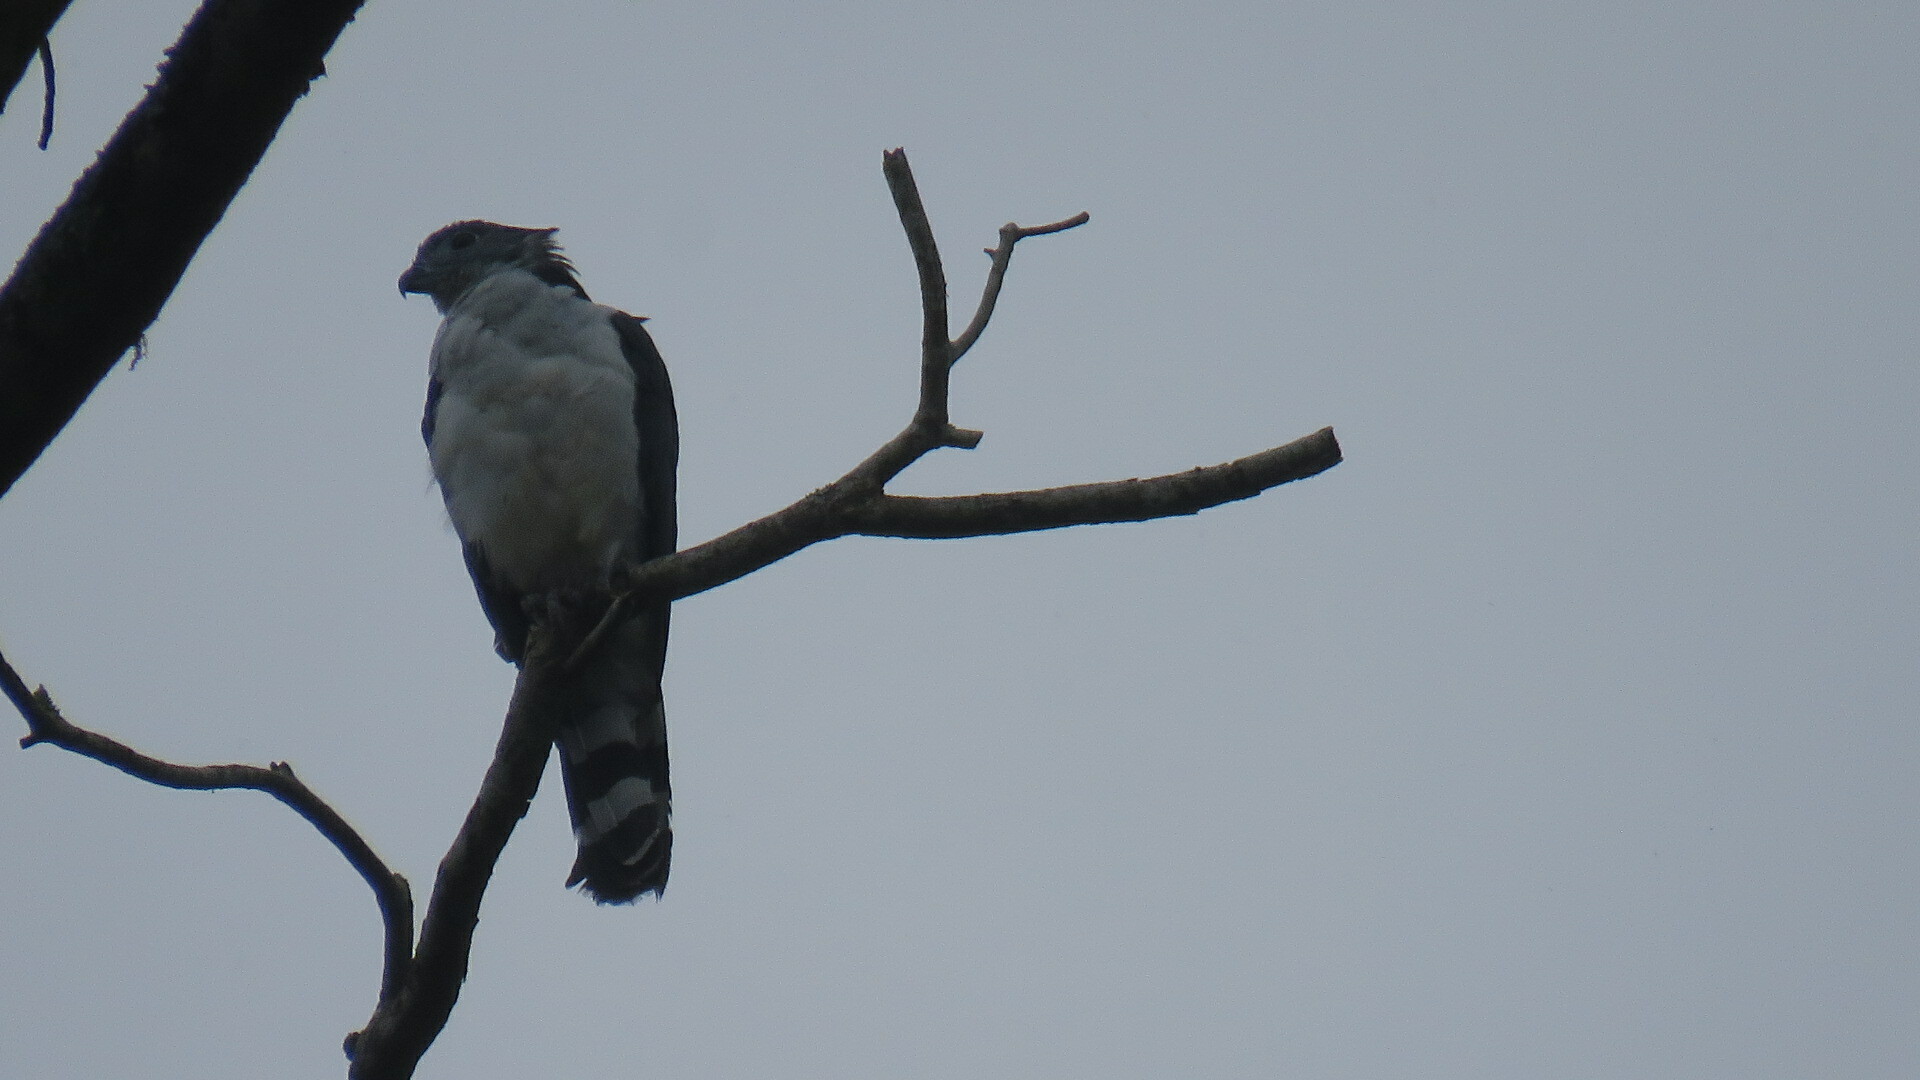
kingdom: Animalia
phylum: Chordata
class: Aves
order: Accipitriformes
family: Accipitridae
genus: Leptodon
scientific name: Leptodon cayanensis
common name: Gray-headed kite
